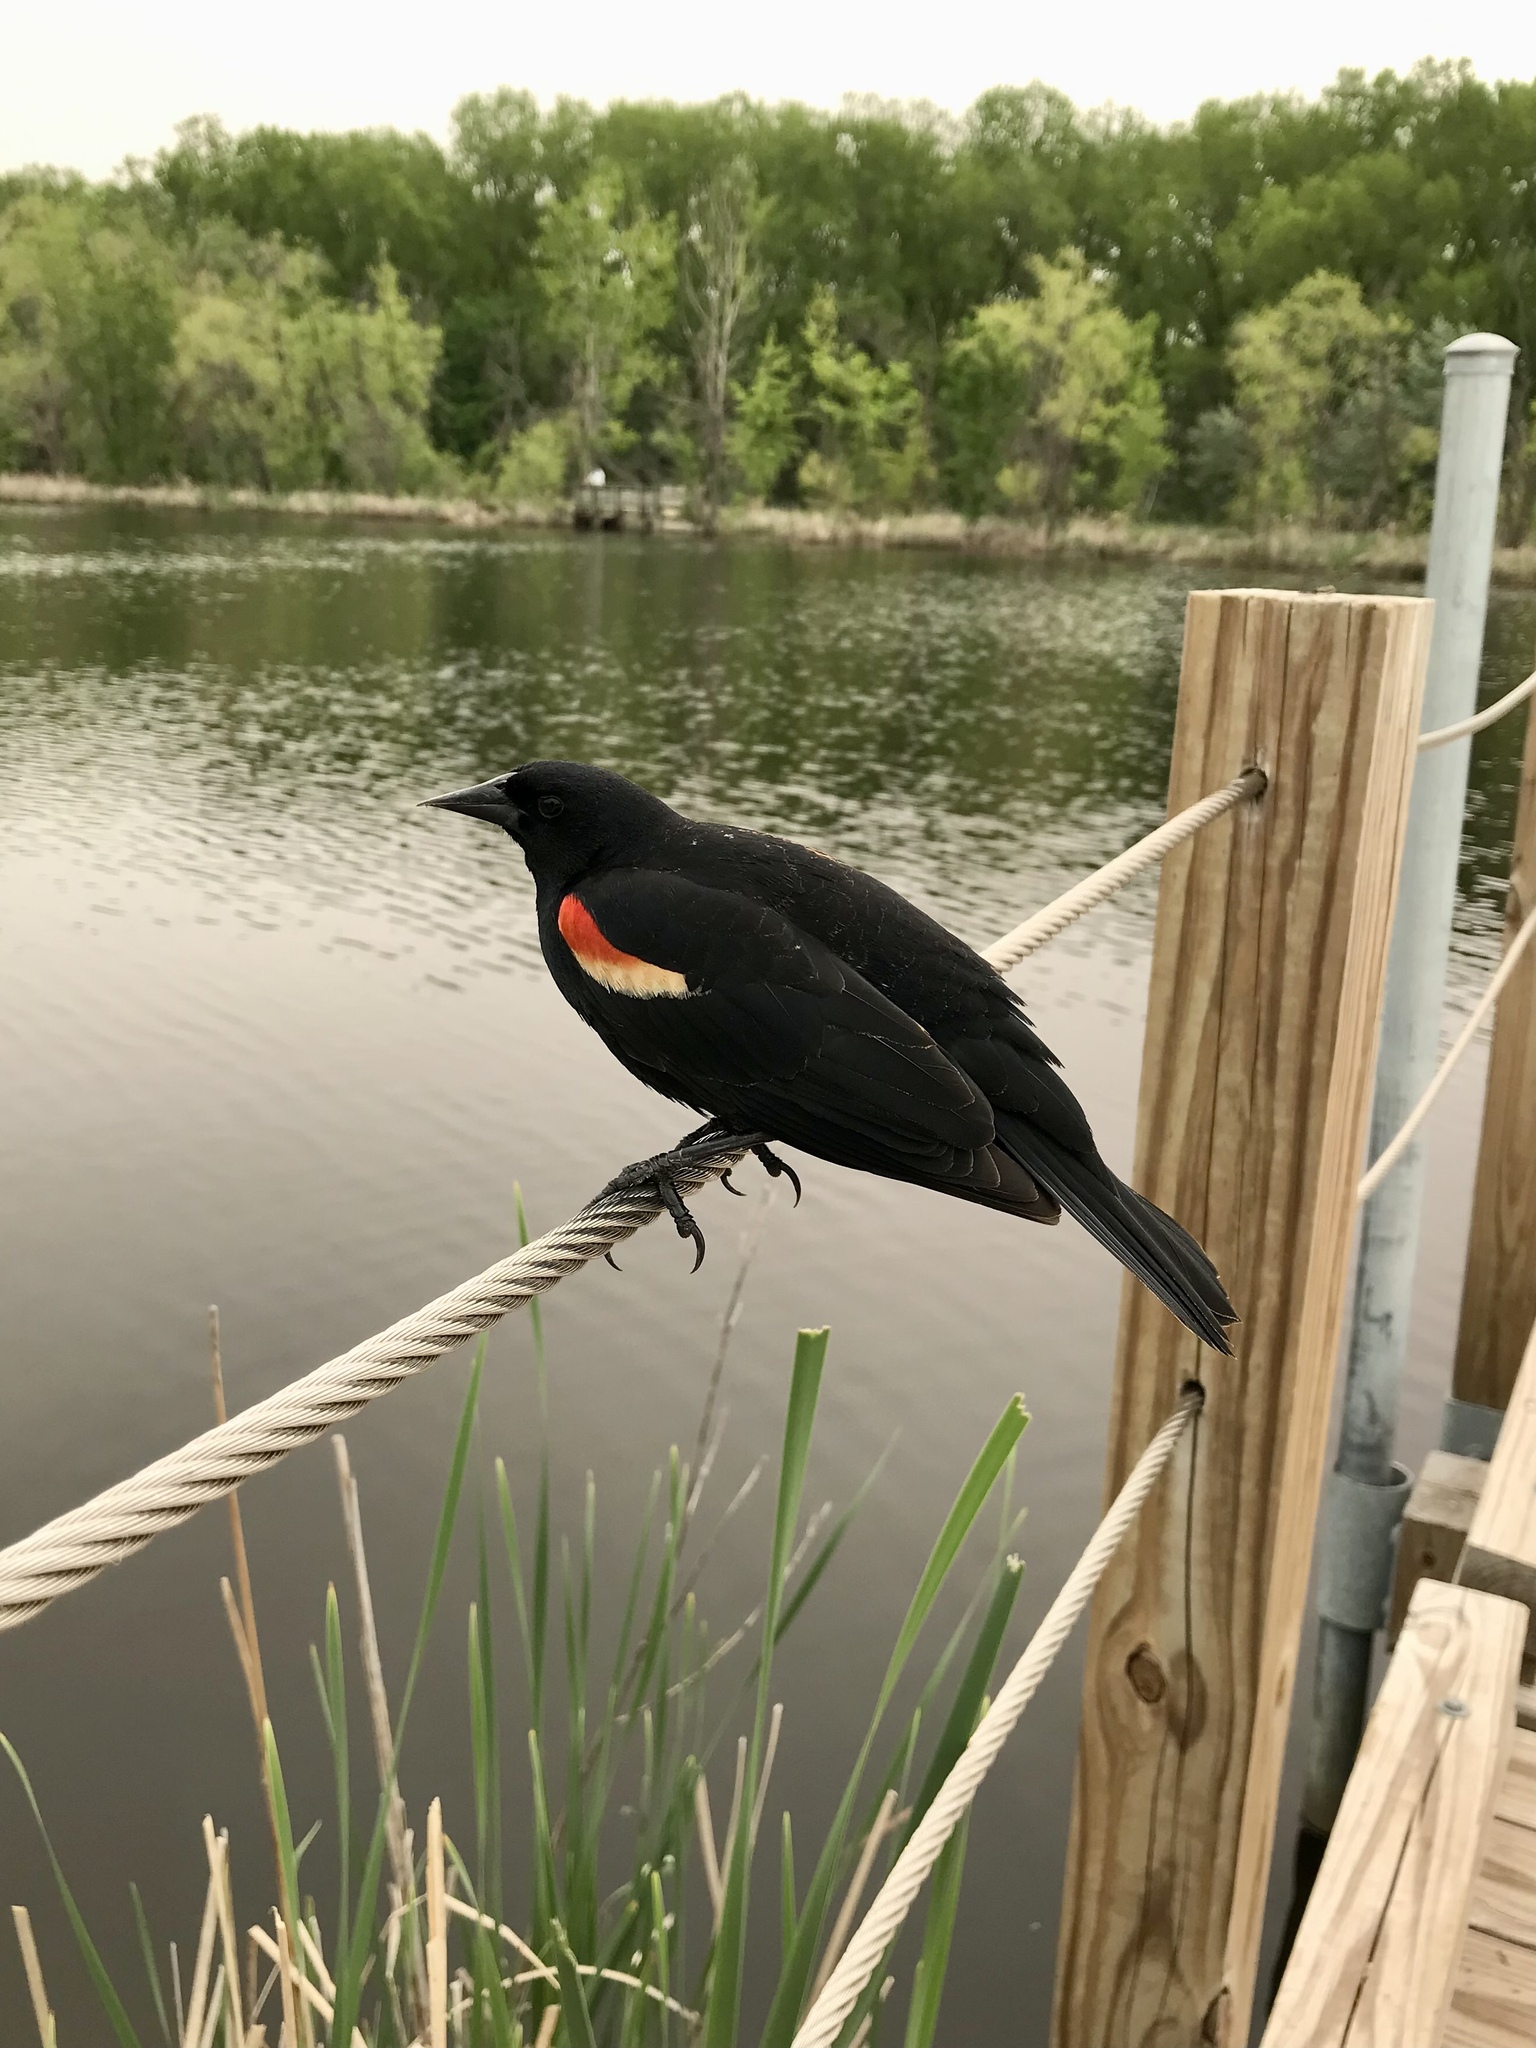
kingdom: Animalia
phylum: Chordata
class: Aves
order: Passeriformes
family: Icteridae
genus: Agelaius
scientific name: Agelaius phoeniceus
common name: Red-winged blackbird
